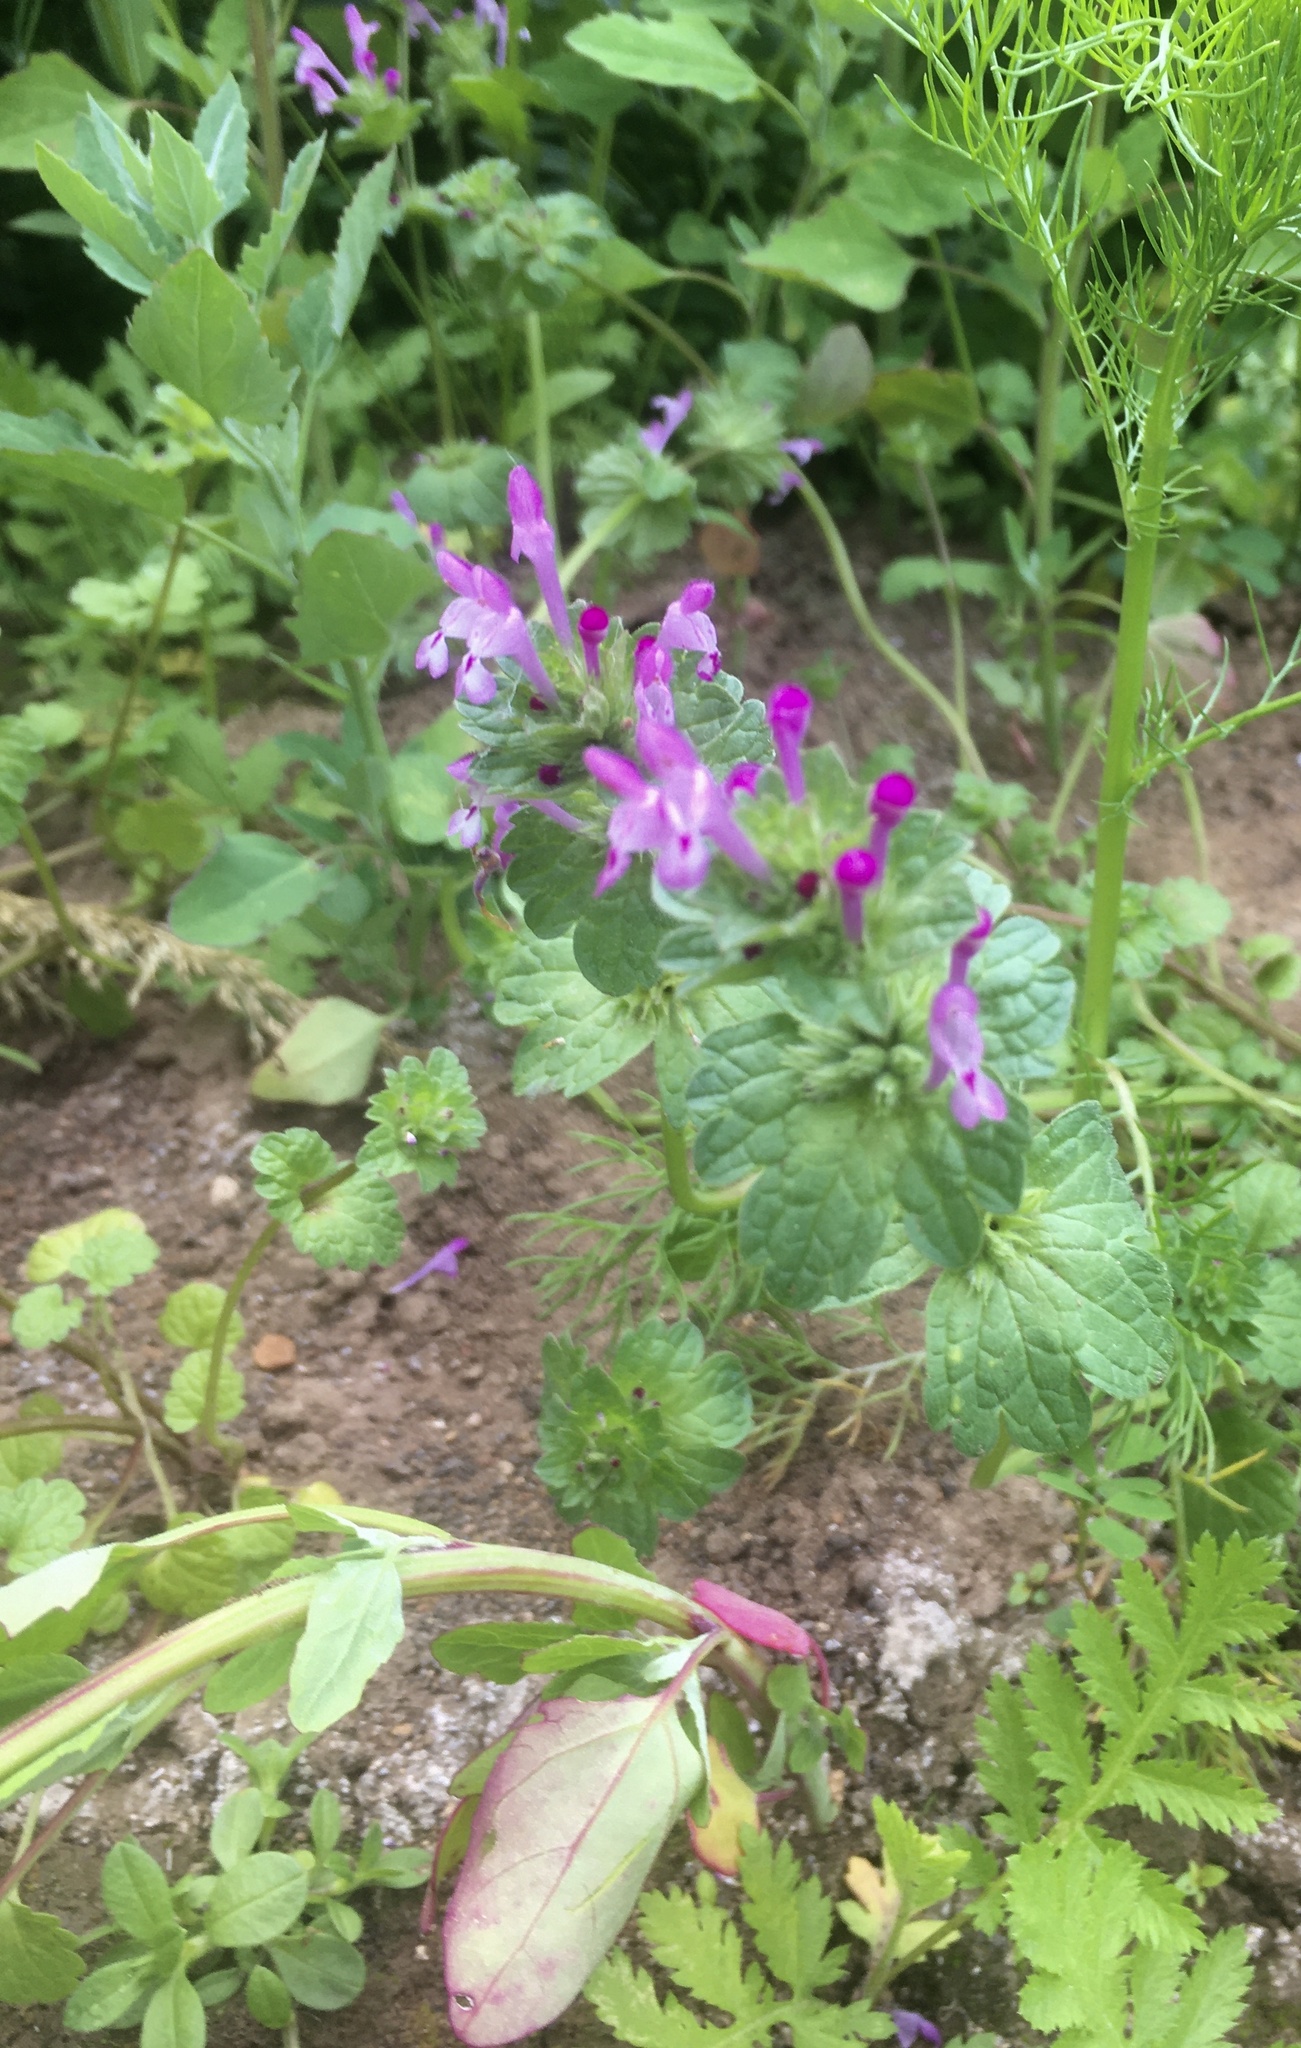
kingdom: Plantae
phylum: Tracheophyta
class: Magnoliopsida
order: Lamiales
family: Lamiaceae
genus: Lamium
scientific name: Lamium amplexicaule
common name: Henbit dead-nettle
